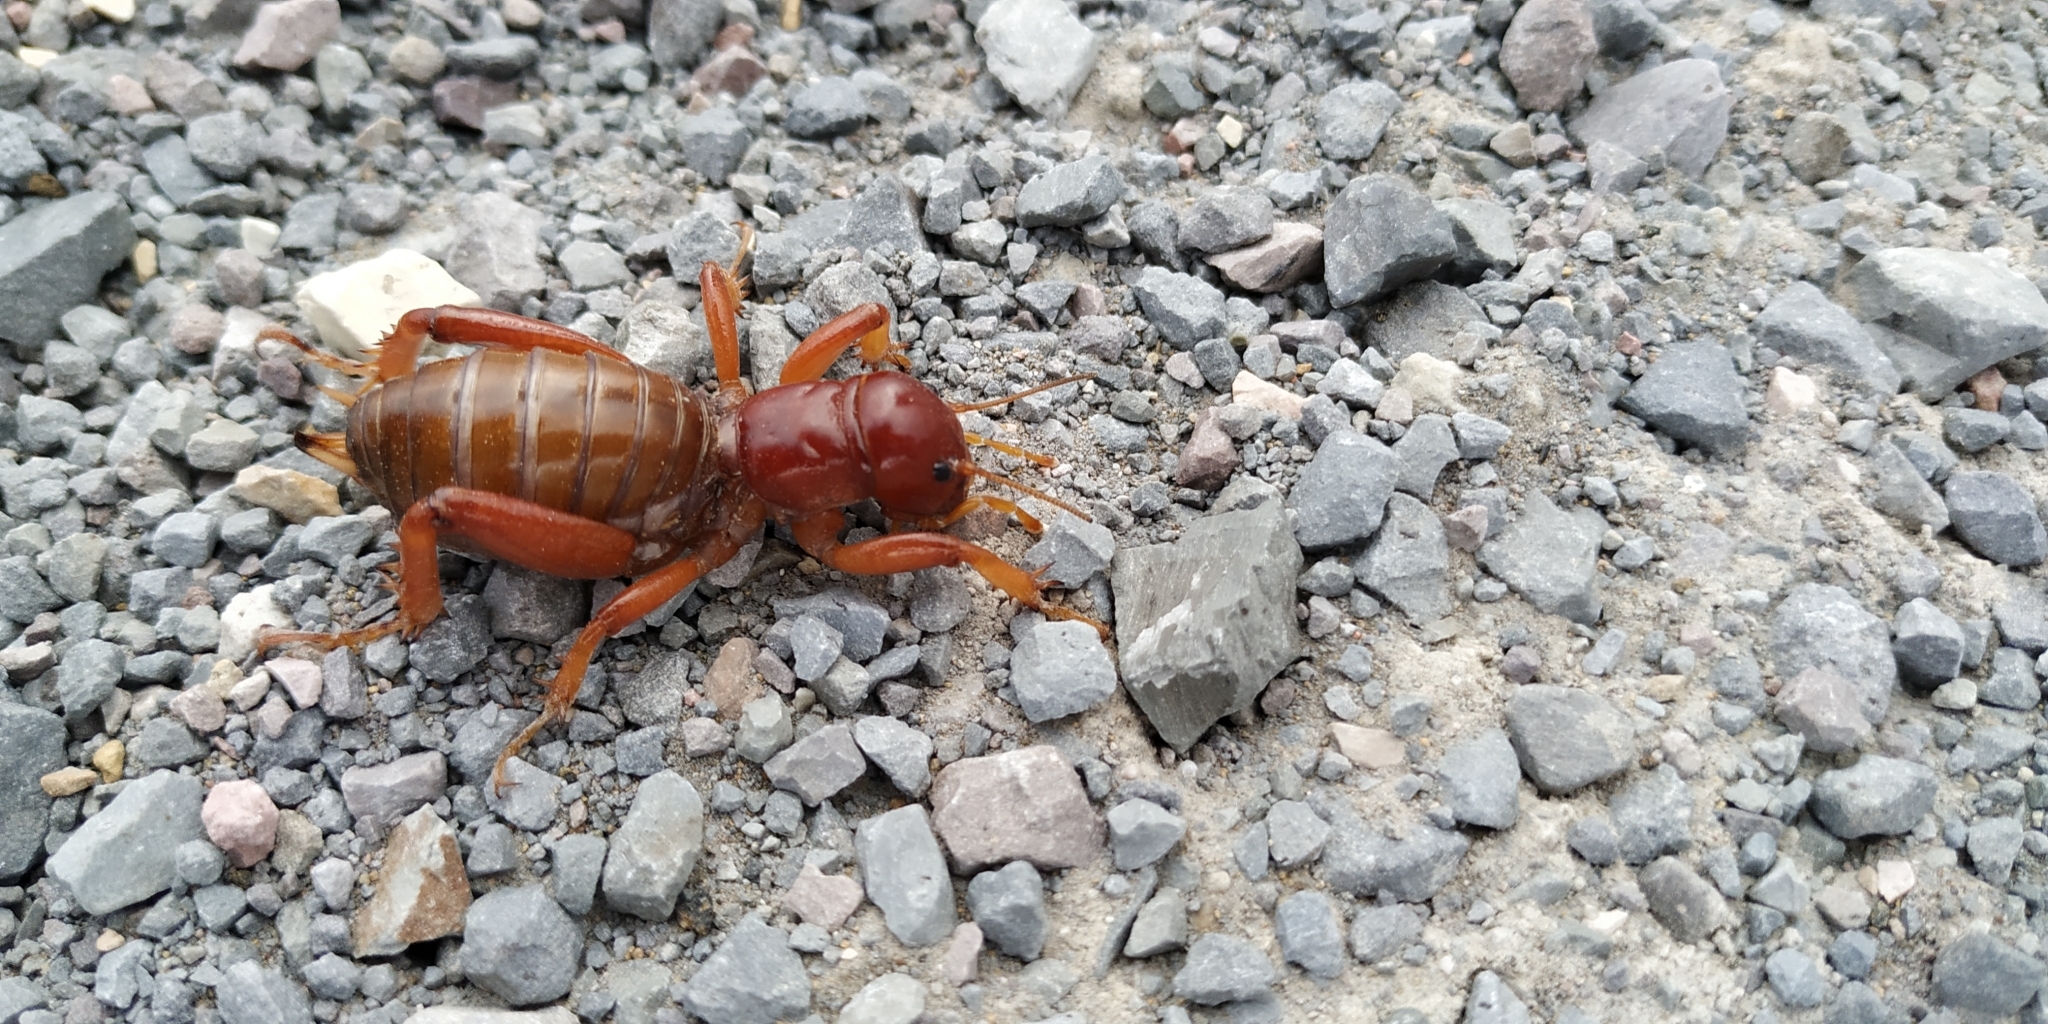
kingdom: Animalia
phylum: Arthropoda
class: Insecta
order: Orthoptera
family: Stenopelmatidae
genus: Stenopelmatus
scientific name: Stenopelmatus talpa
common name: Mole jerusalem cricket
